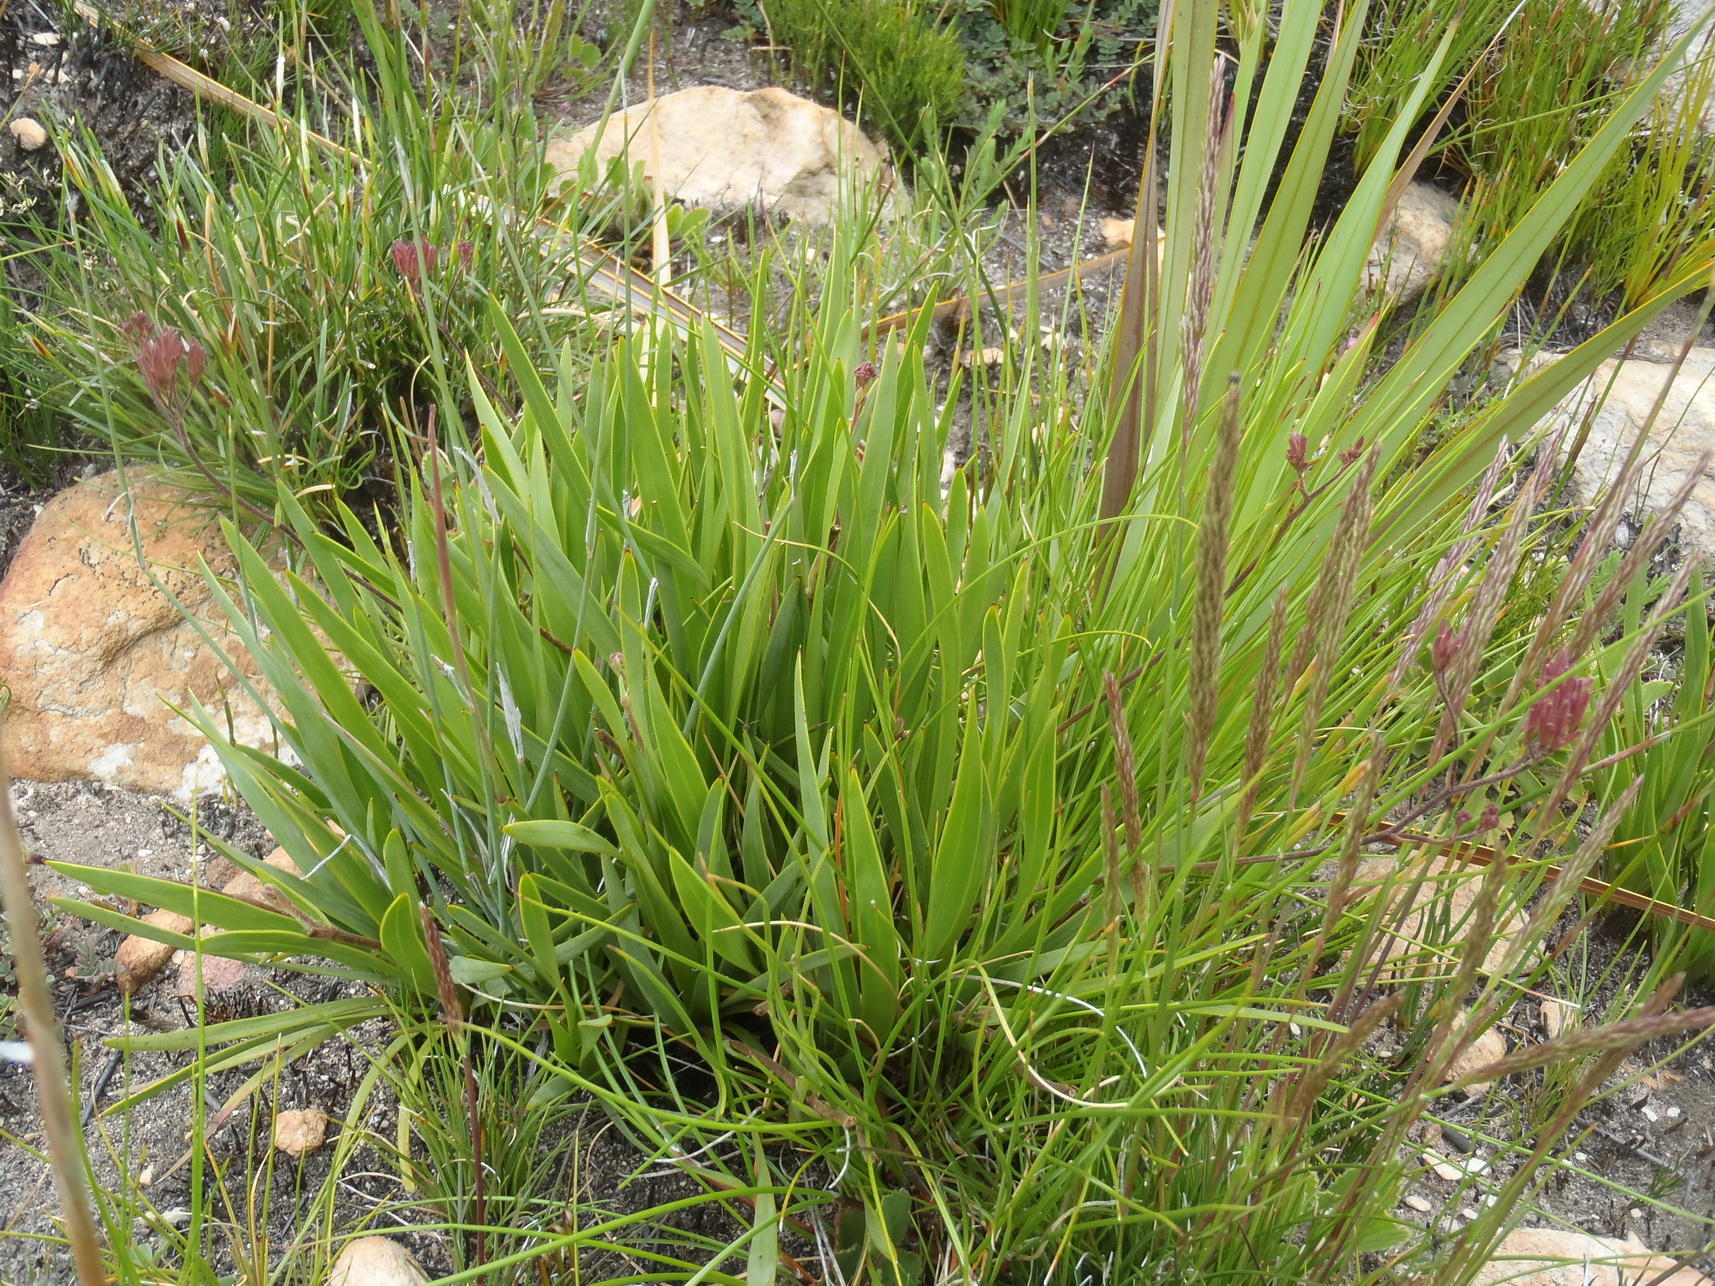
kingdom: Plantae
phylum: Tracheophyta
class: Magnoliopsida
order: Asterales
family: Asteraceae
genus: Corymbium
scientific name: Corymbium africanum
